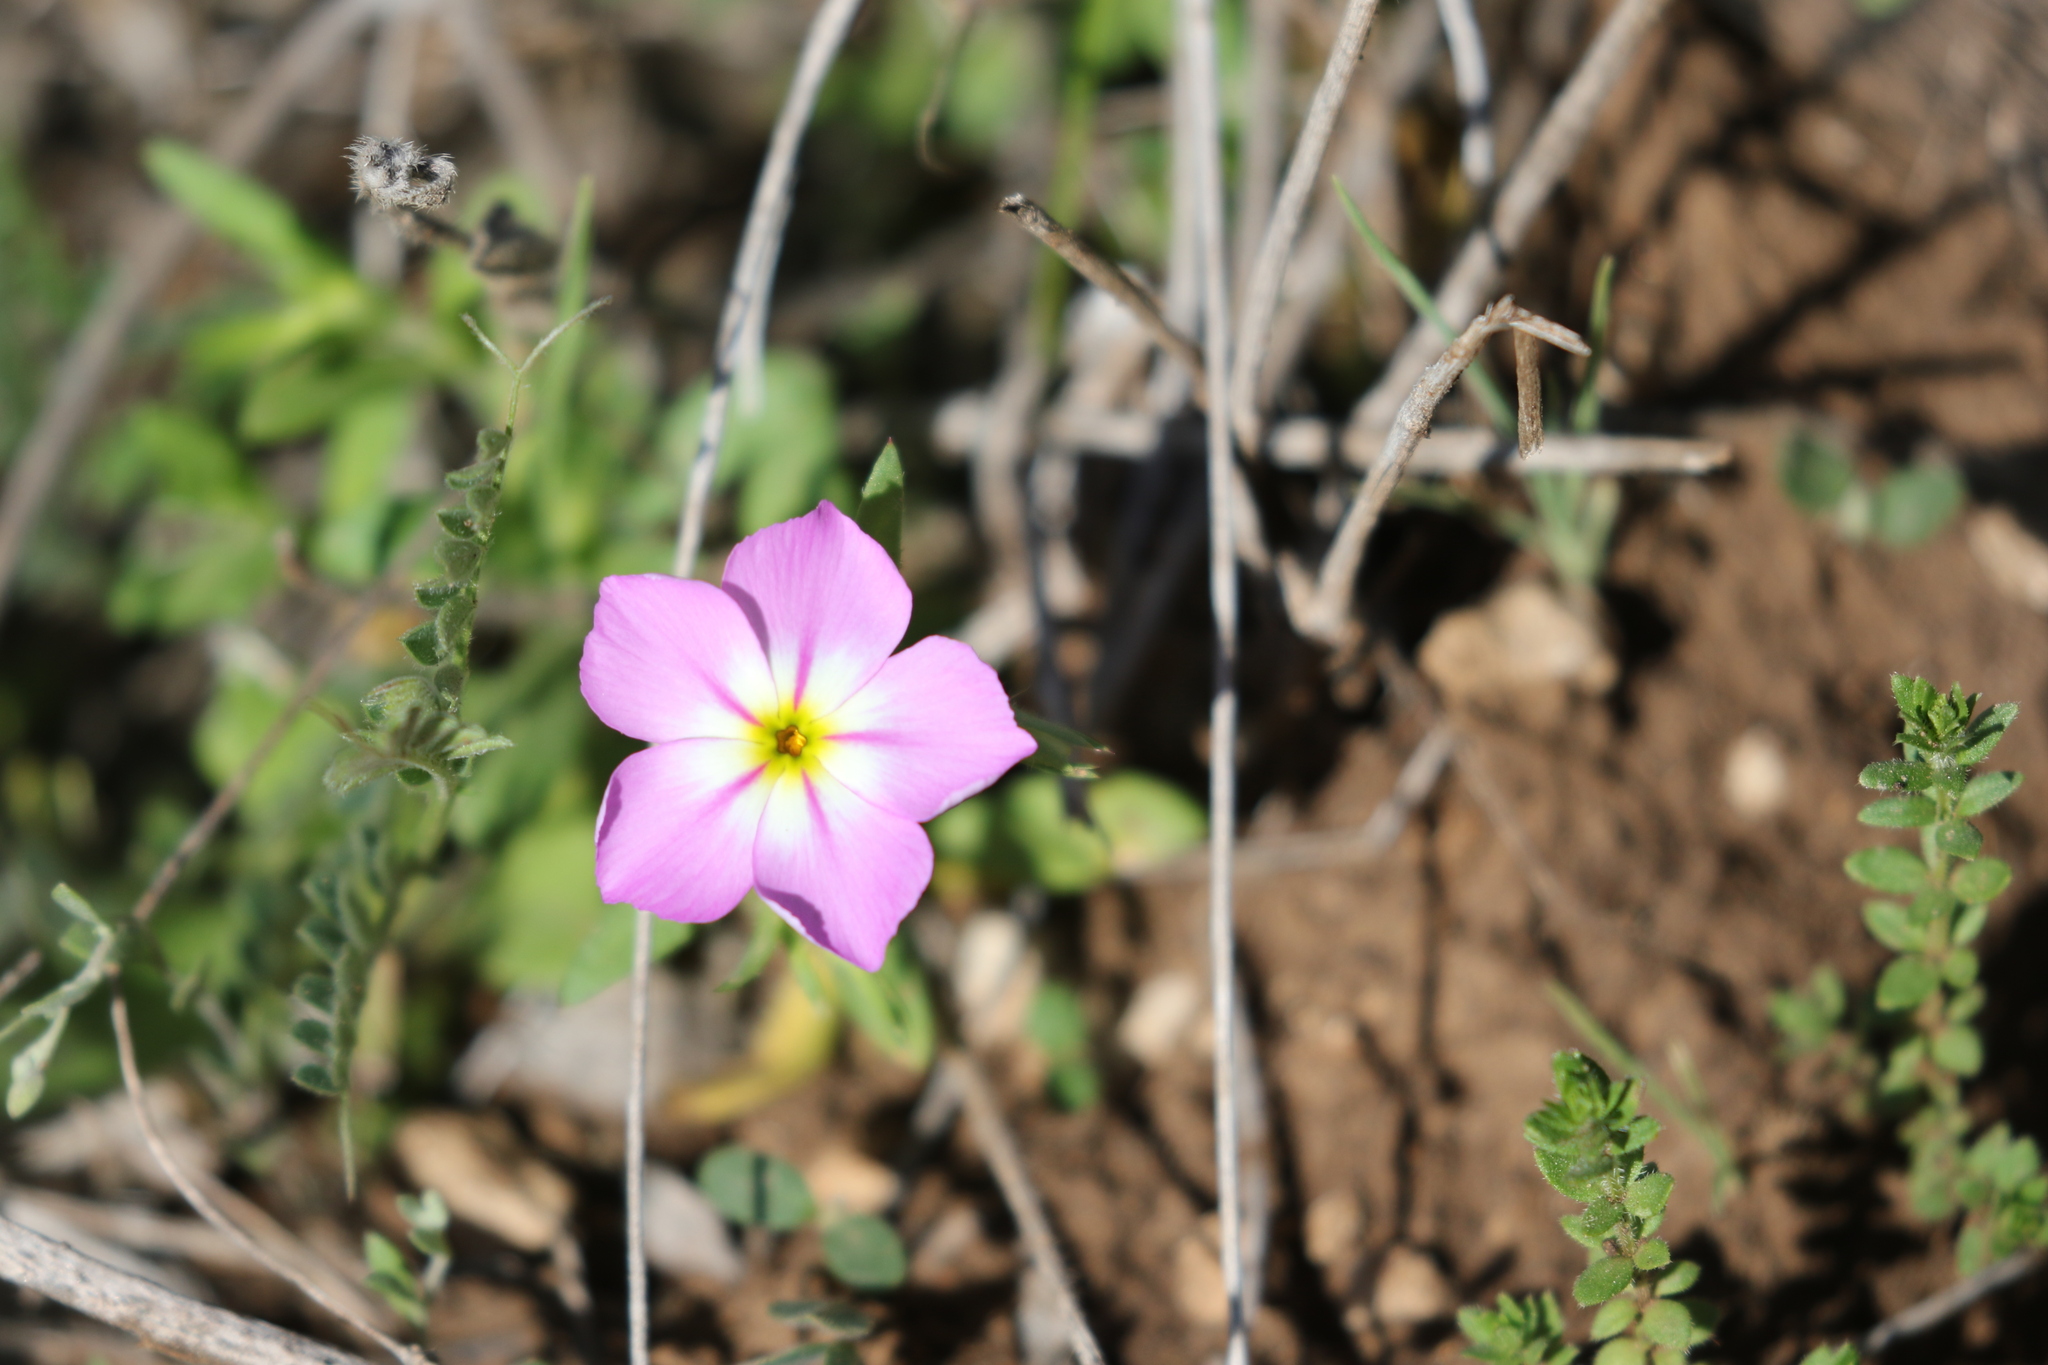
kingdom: Plantae
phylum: Tracheophyta
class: Magnoliopsida
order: Ericales
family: Polemoniaceae
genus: Phlox
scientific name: Phlox roemeriana
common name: Roemer's phlox
